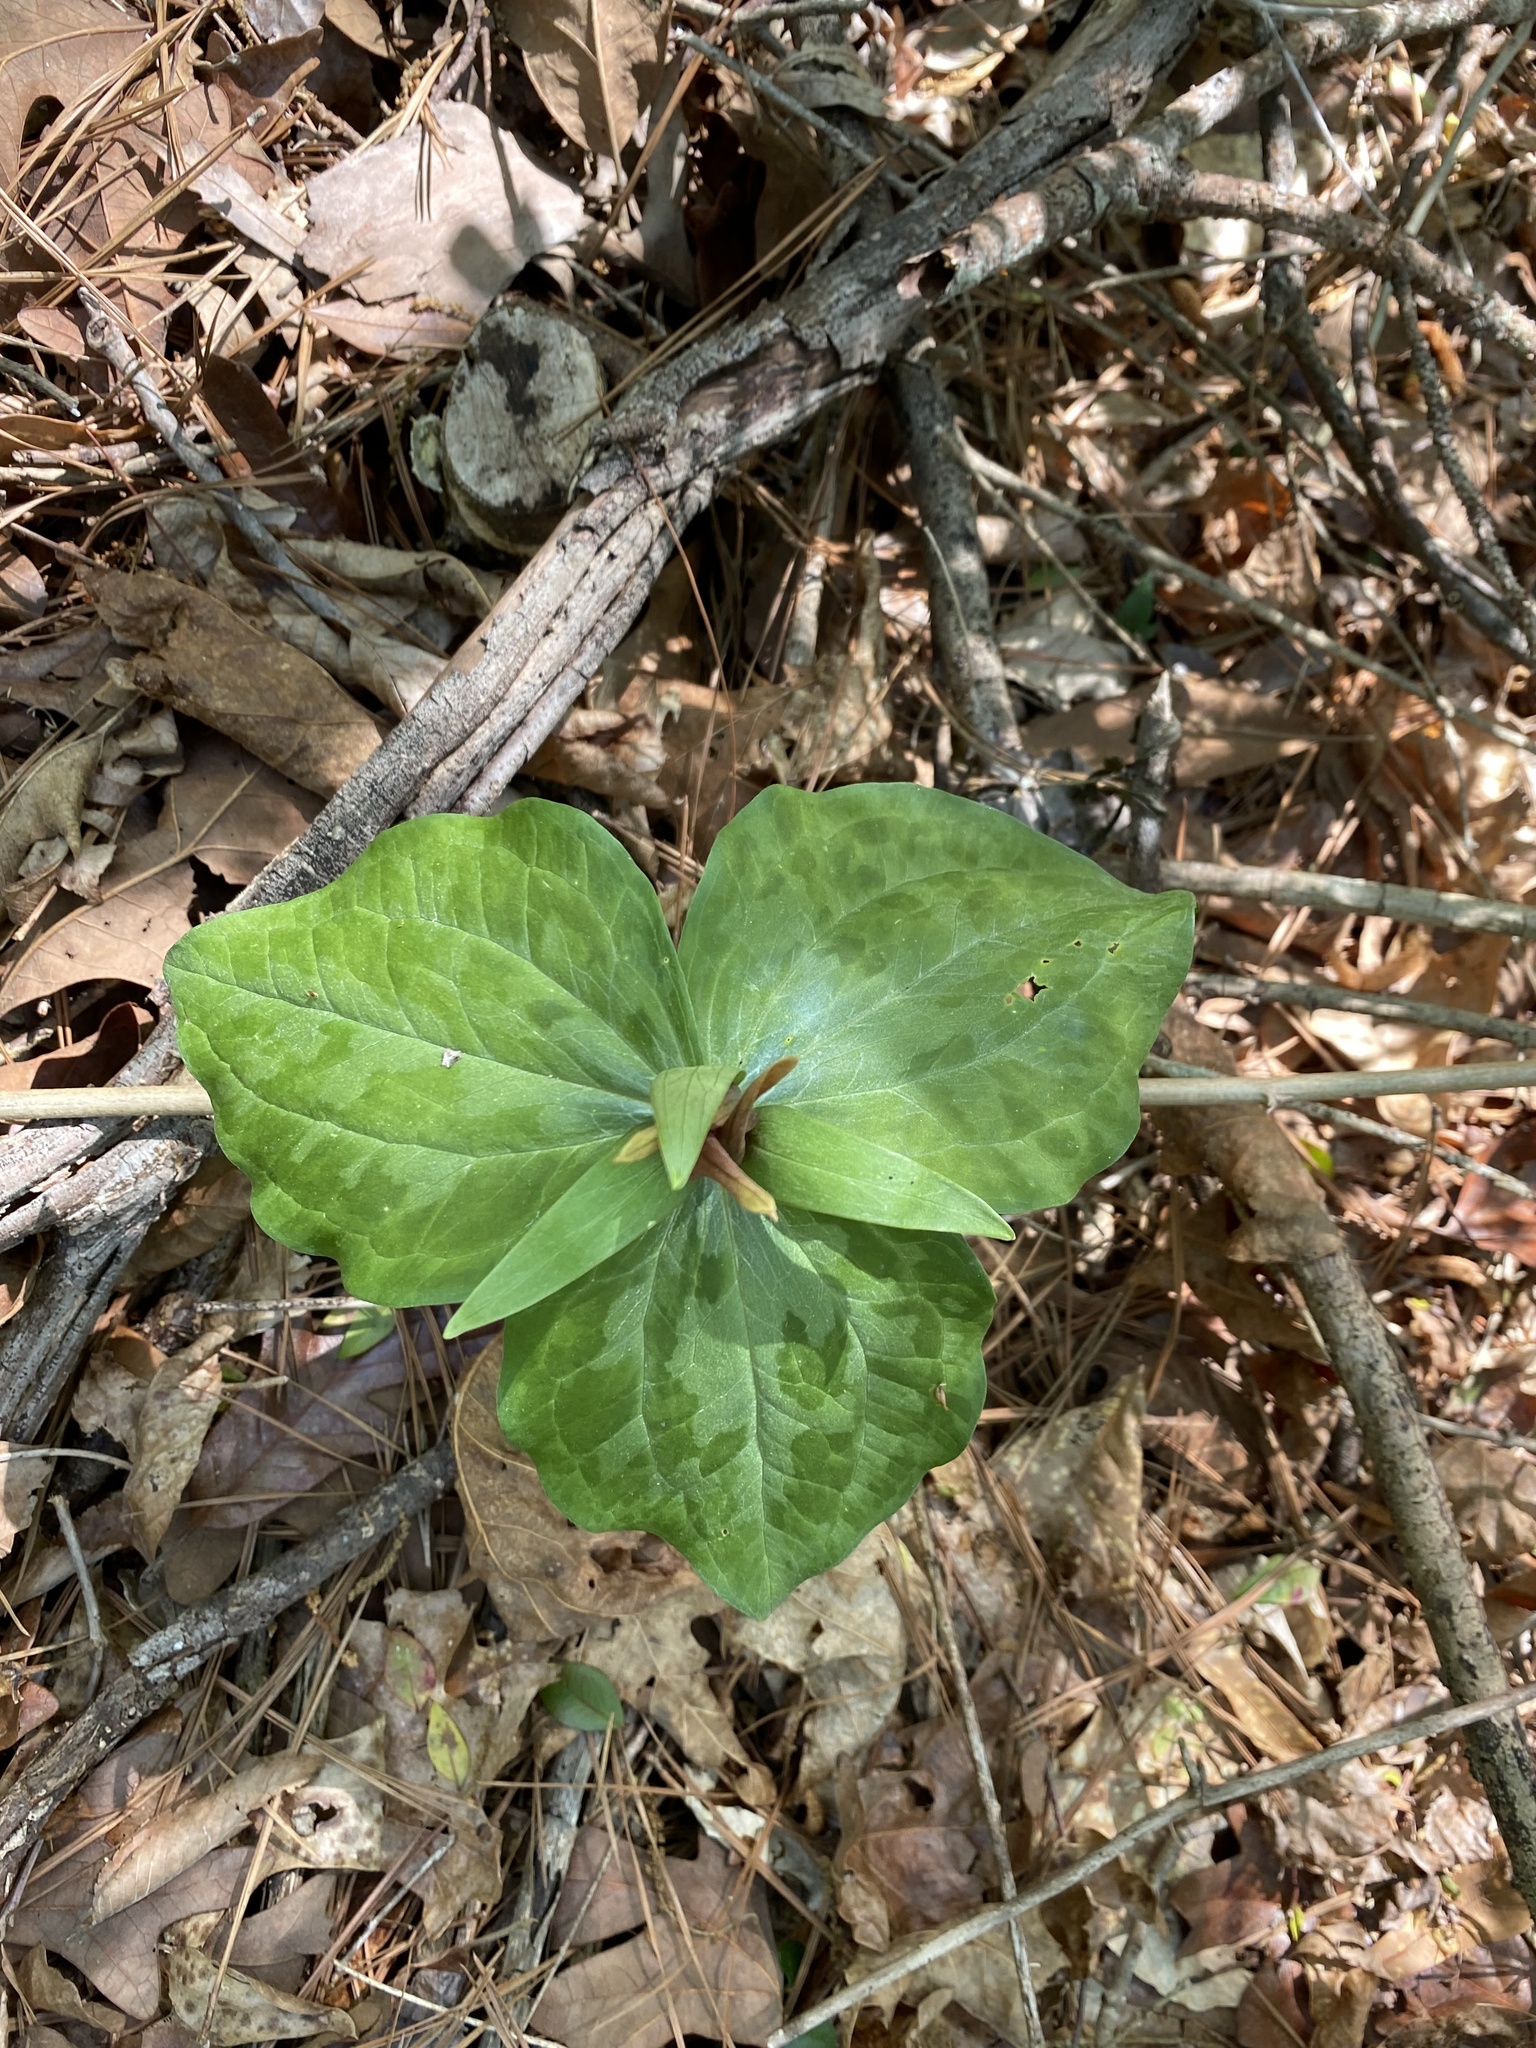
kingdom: Plantae
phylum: Tracheophyta
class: Liliopsida
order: Liliales
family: Melanthiaceae
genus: Trillium
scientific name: Trillium cuneatum
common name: Cuneate trillium
